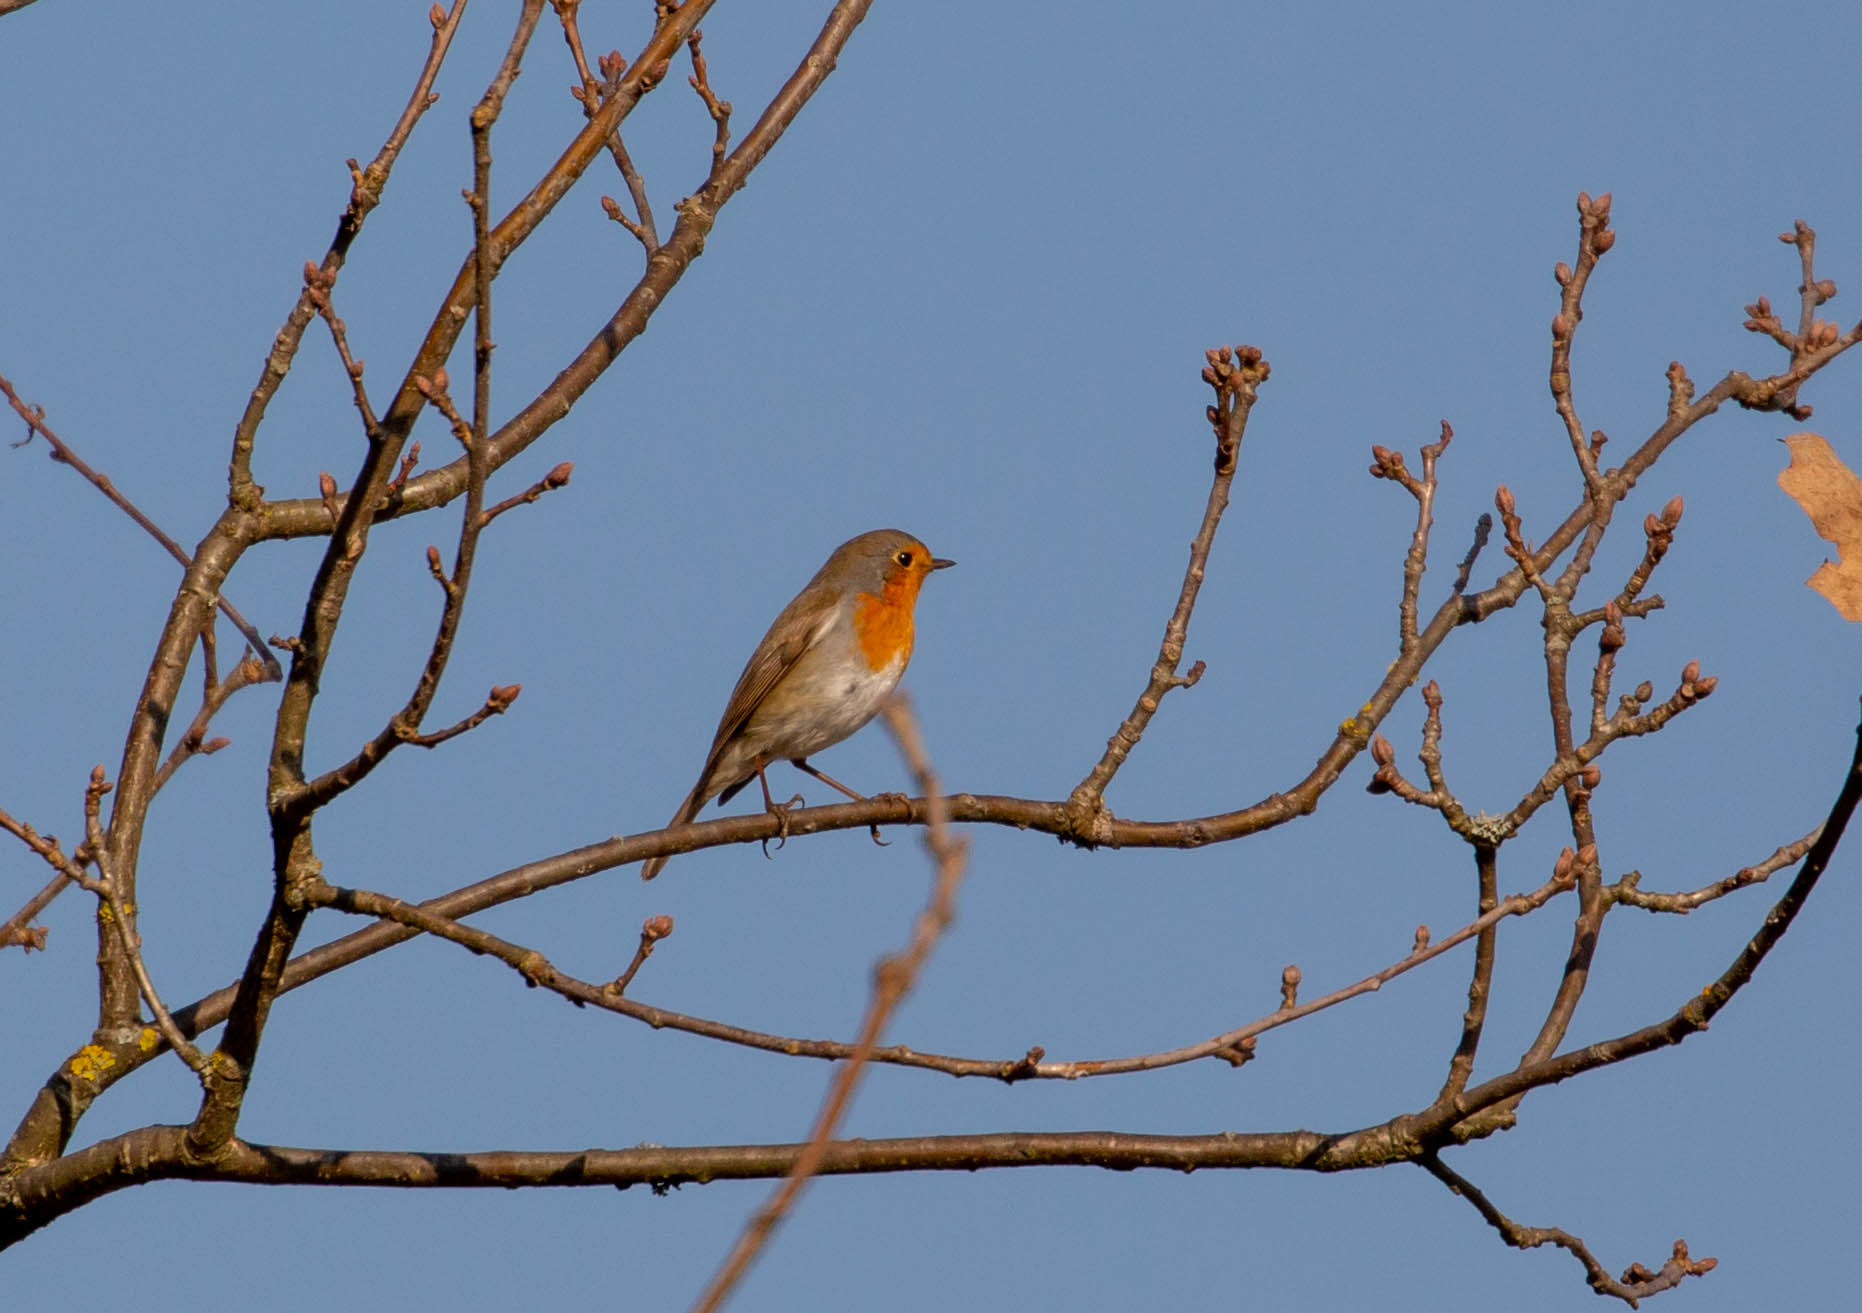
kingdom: Animalia
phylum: Chordata
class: Aves
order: Passeriformes
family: Muscicapidae
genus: Erithacus
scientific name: Erithacus rubecula
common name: European robin
